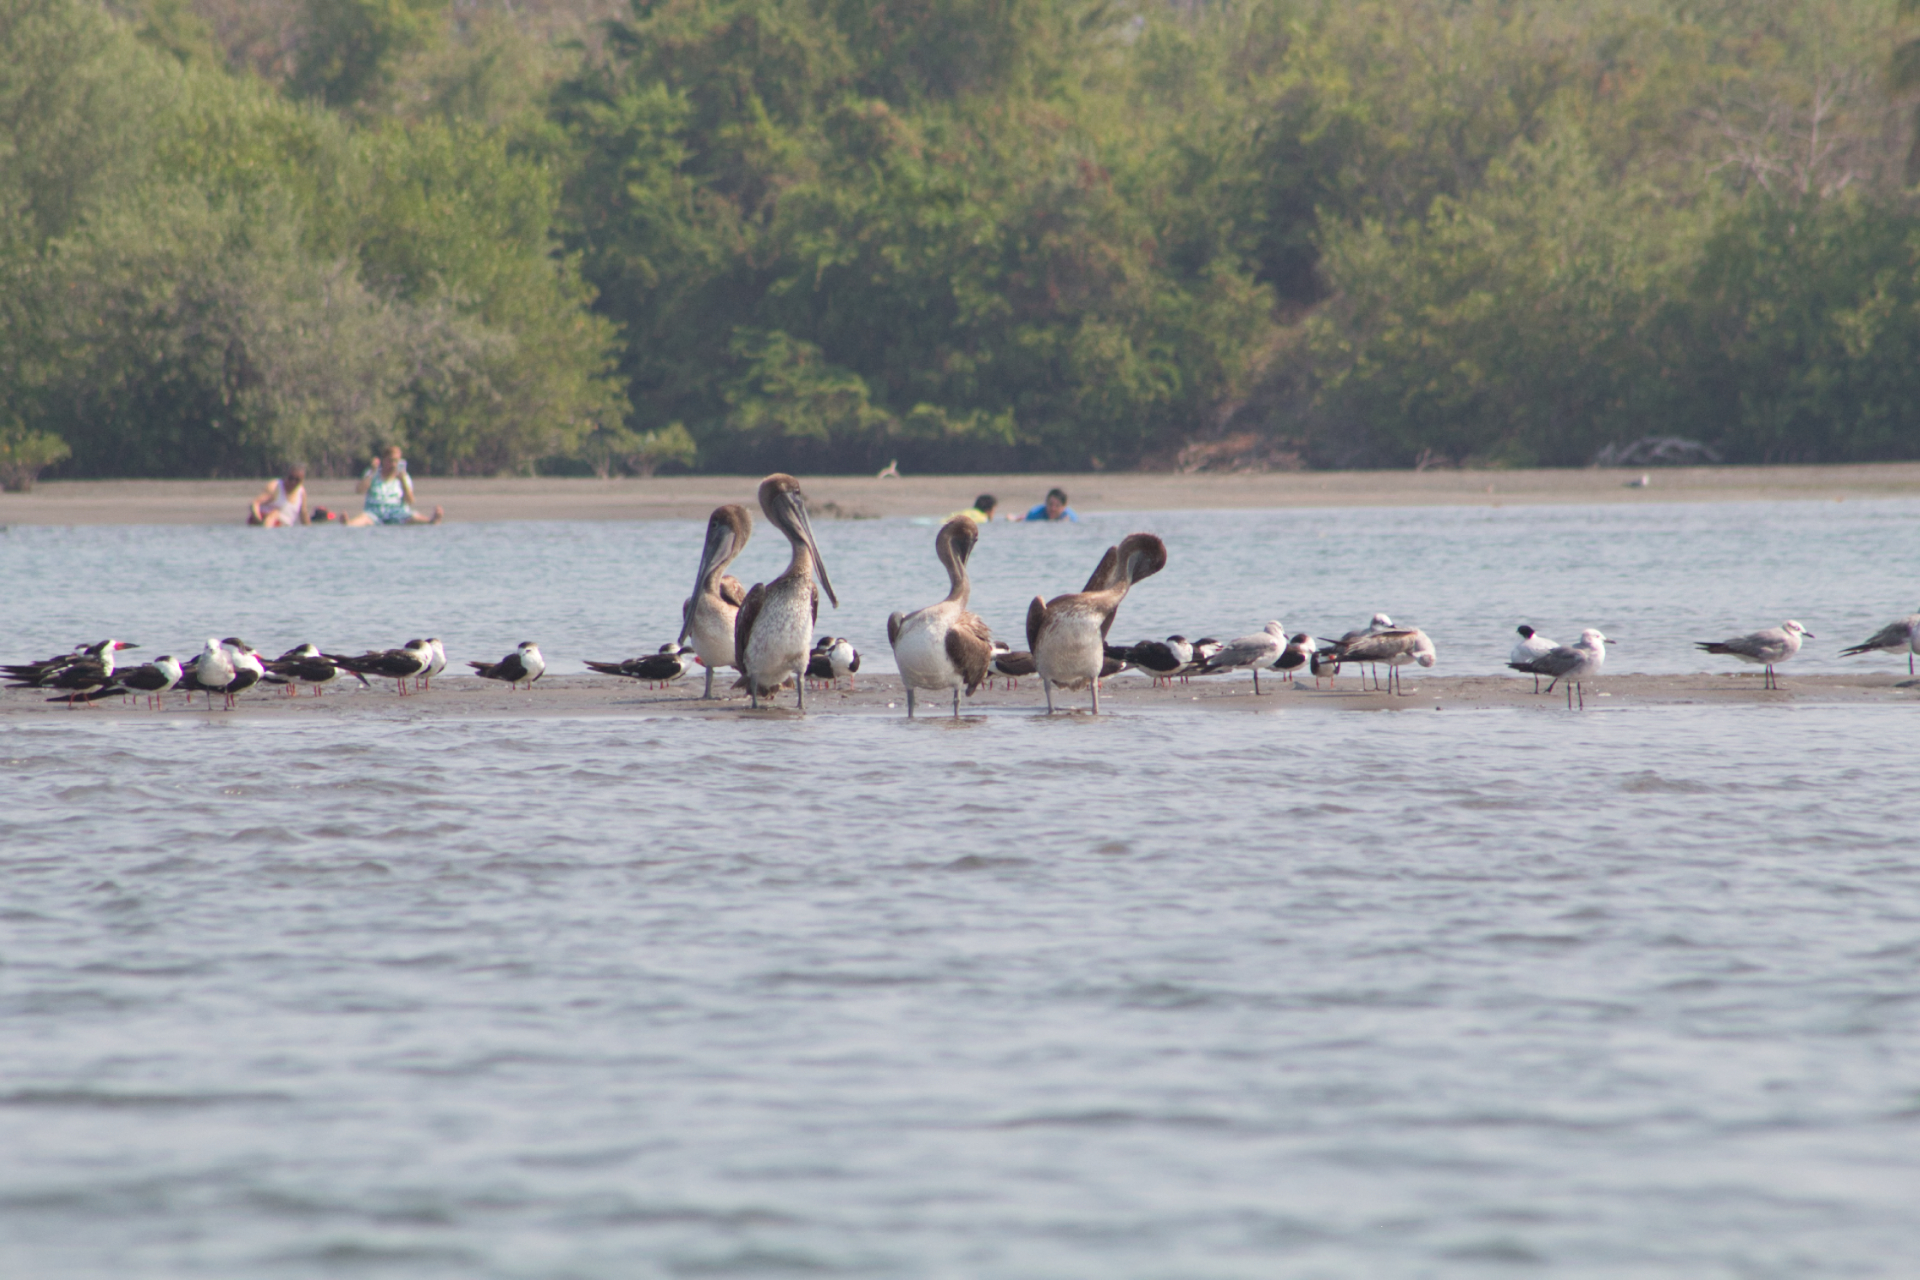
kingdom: Animalia
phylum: Chordata
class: Aves
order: Pelecaniformes
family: Pelecanidae
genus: Pelecanus
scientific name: Pelecanus occidentalis
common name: Brown pelican
